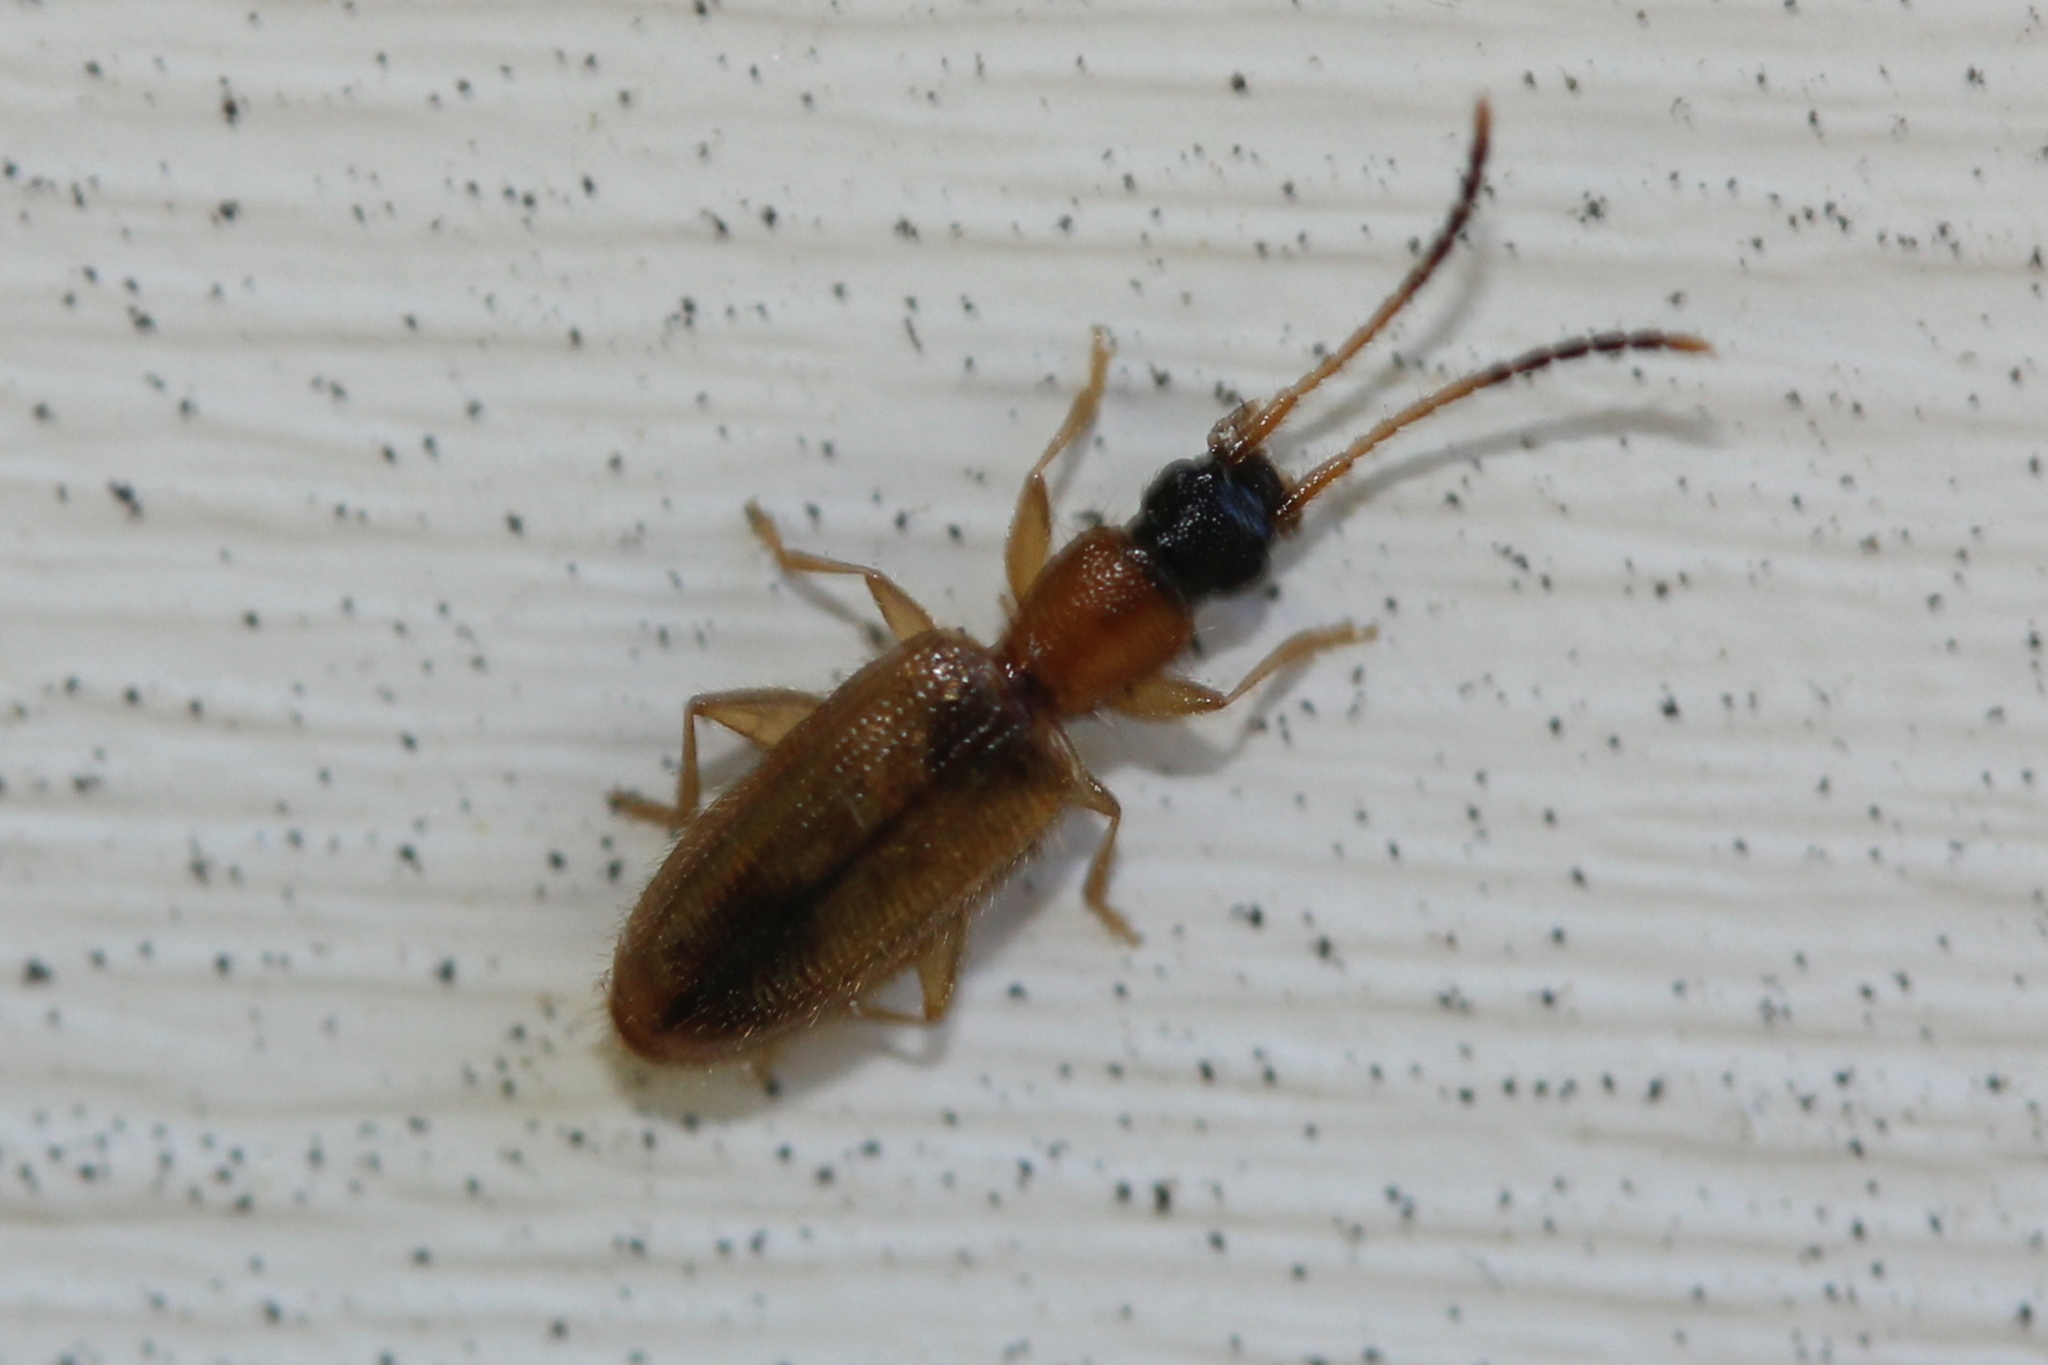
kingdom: Animalia
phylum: Arthropoda
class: Insecta
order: Coleoptera
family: Silvanidae
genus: Telephanus
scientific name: Telephanus velox
